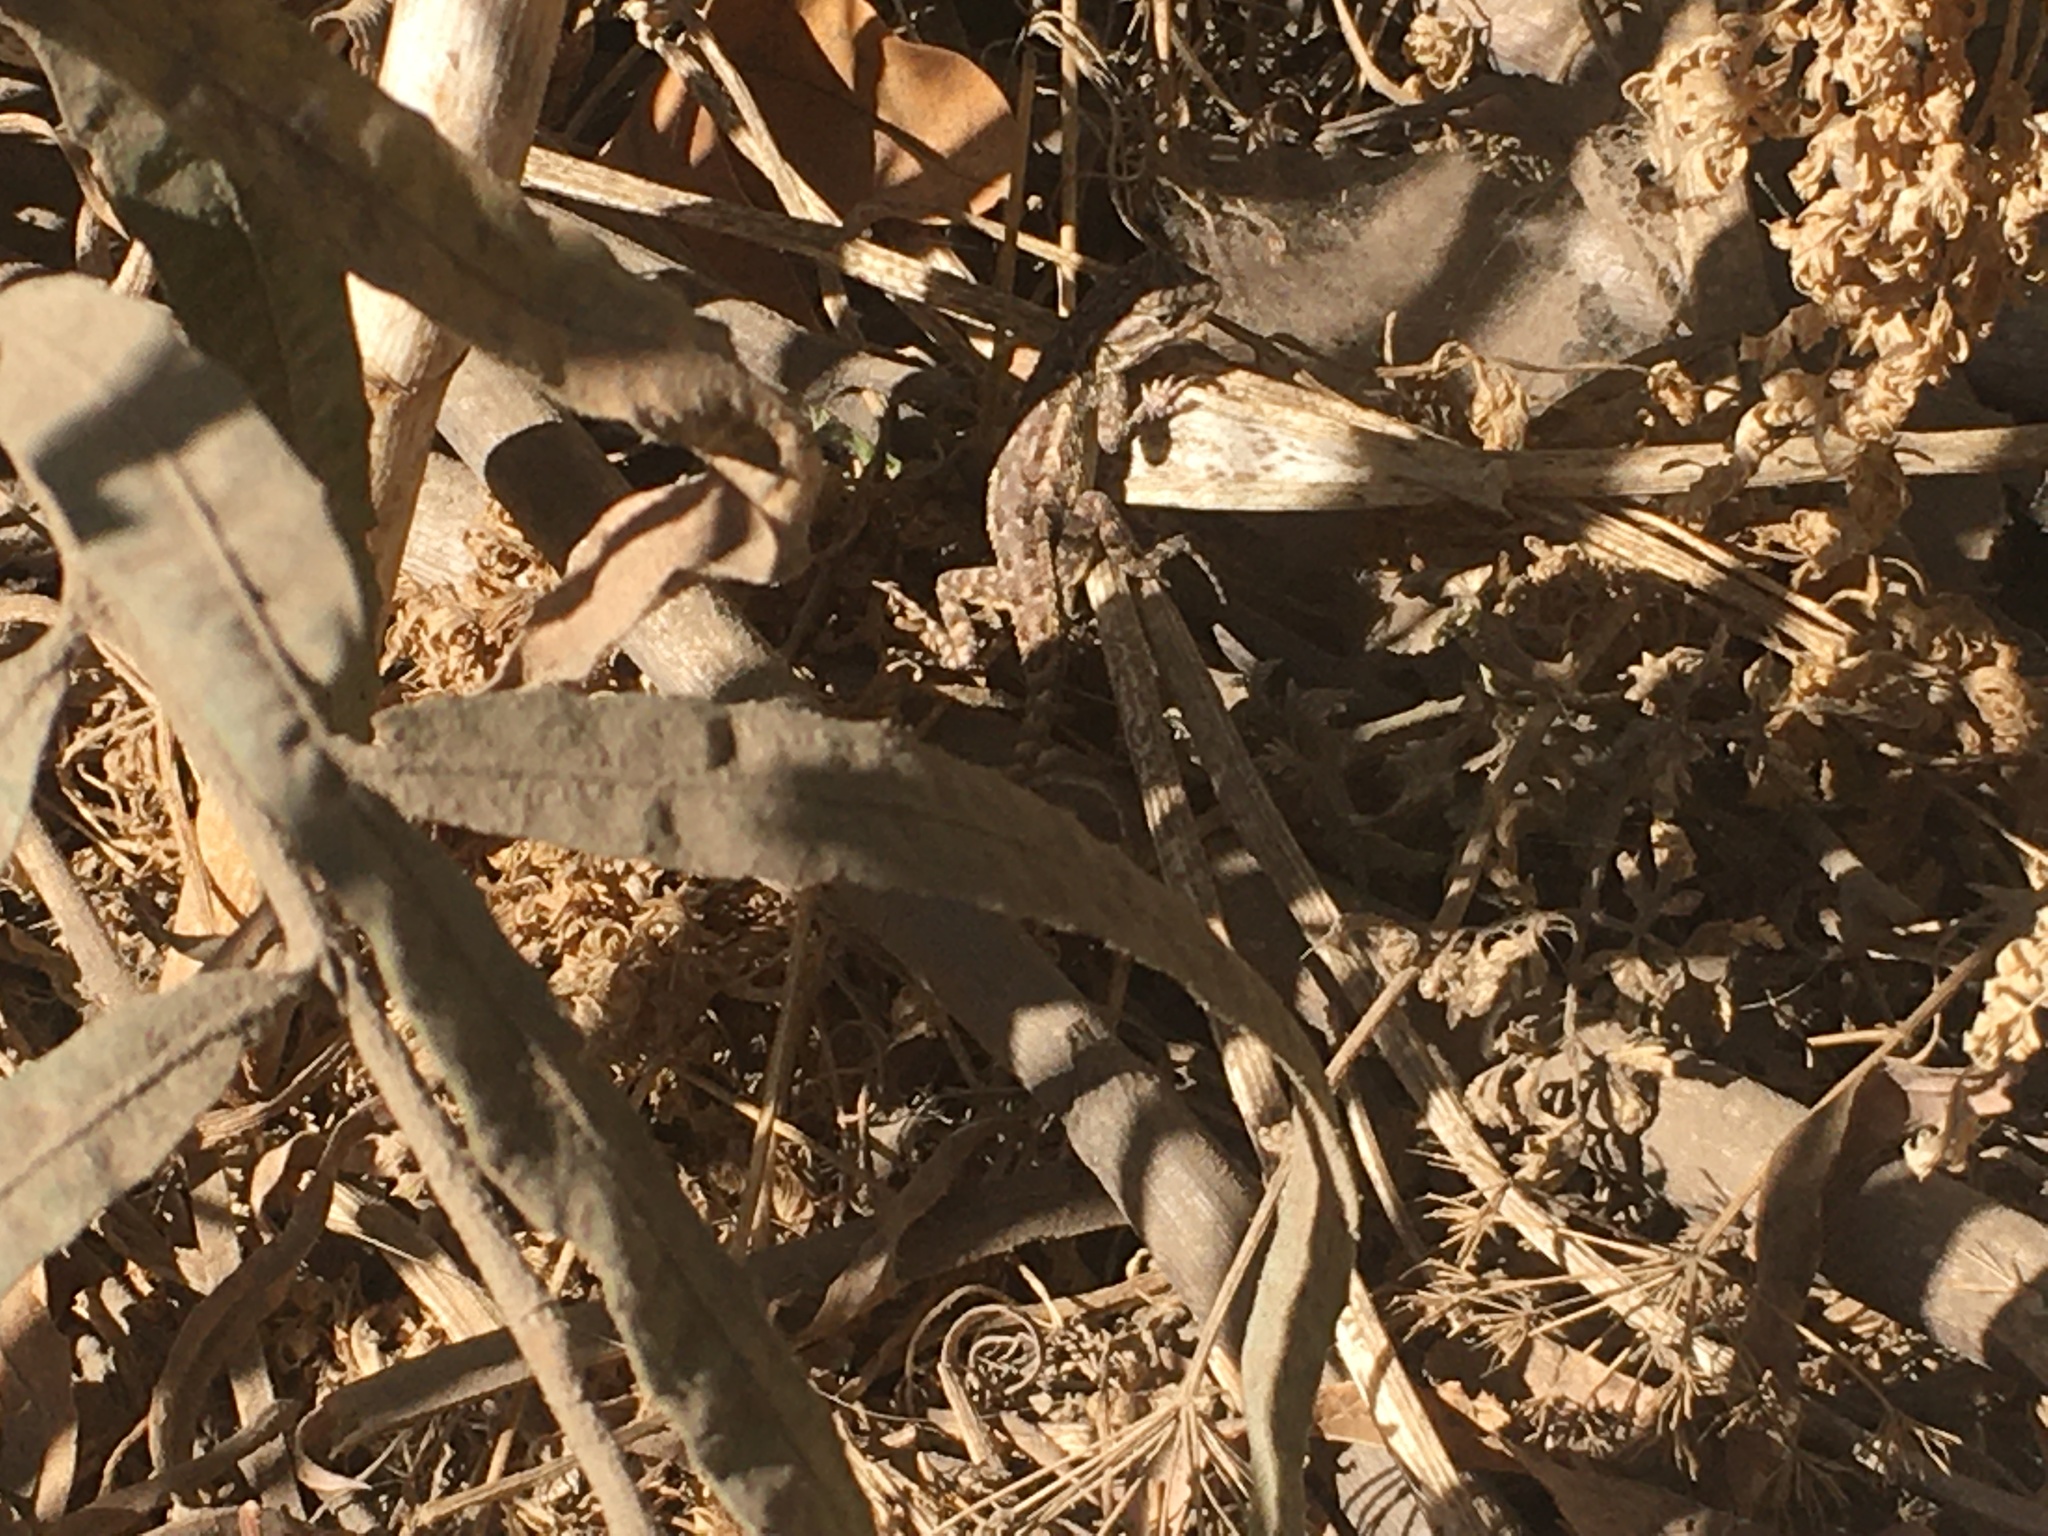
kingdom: Animalia
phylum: Chordata
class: Squamata
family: Phrynosomatidae
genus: Sceloporus
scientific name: Sceloporus occidentalis
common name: Western fence lizard
